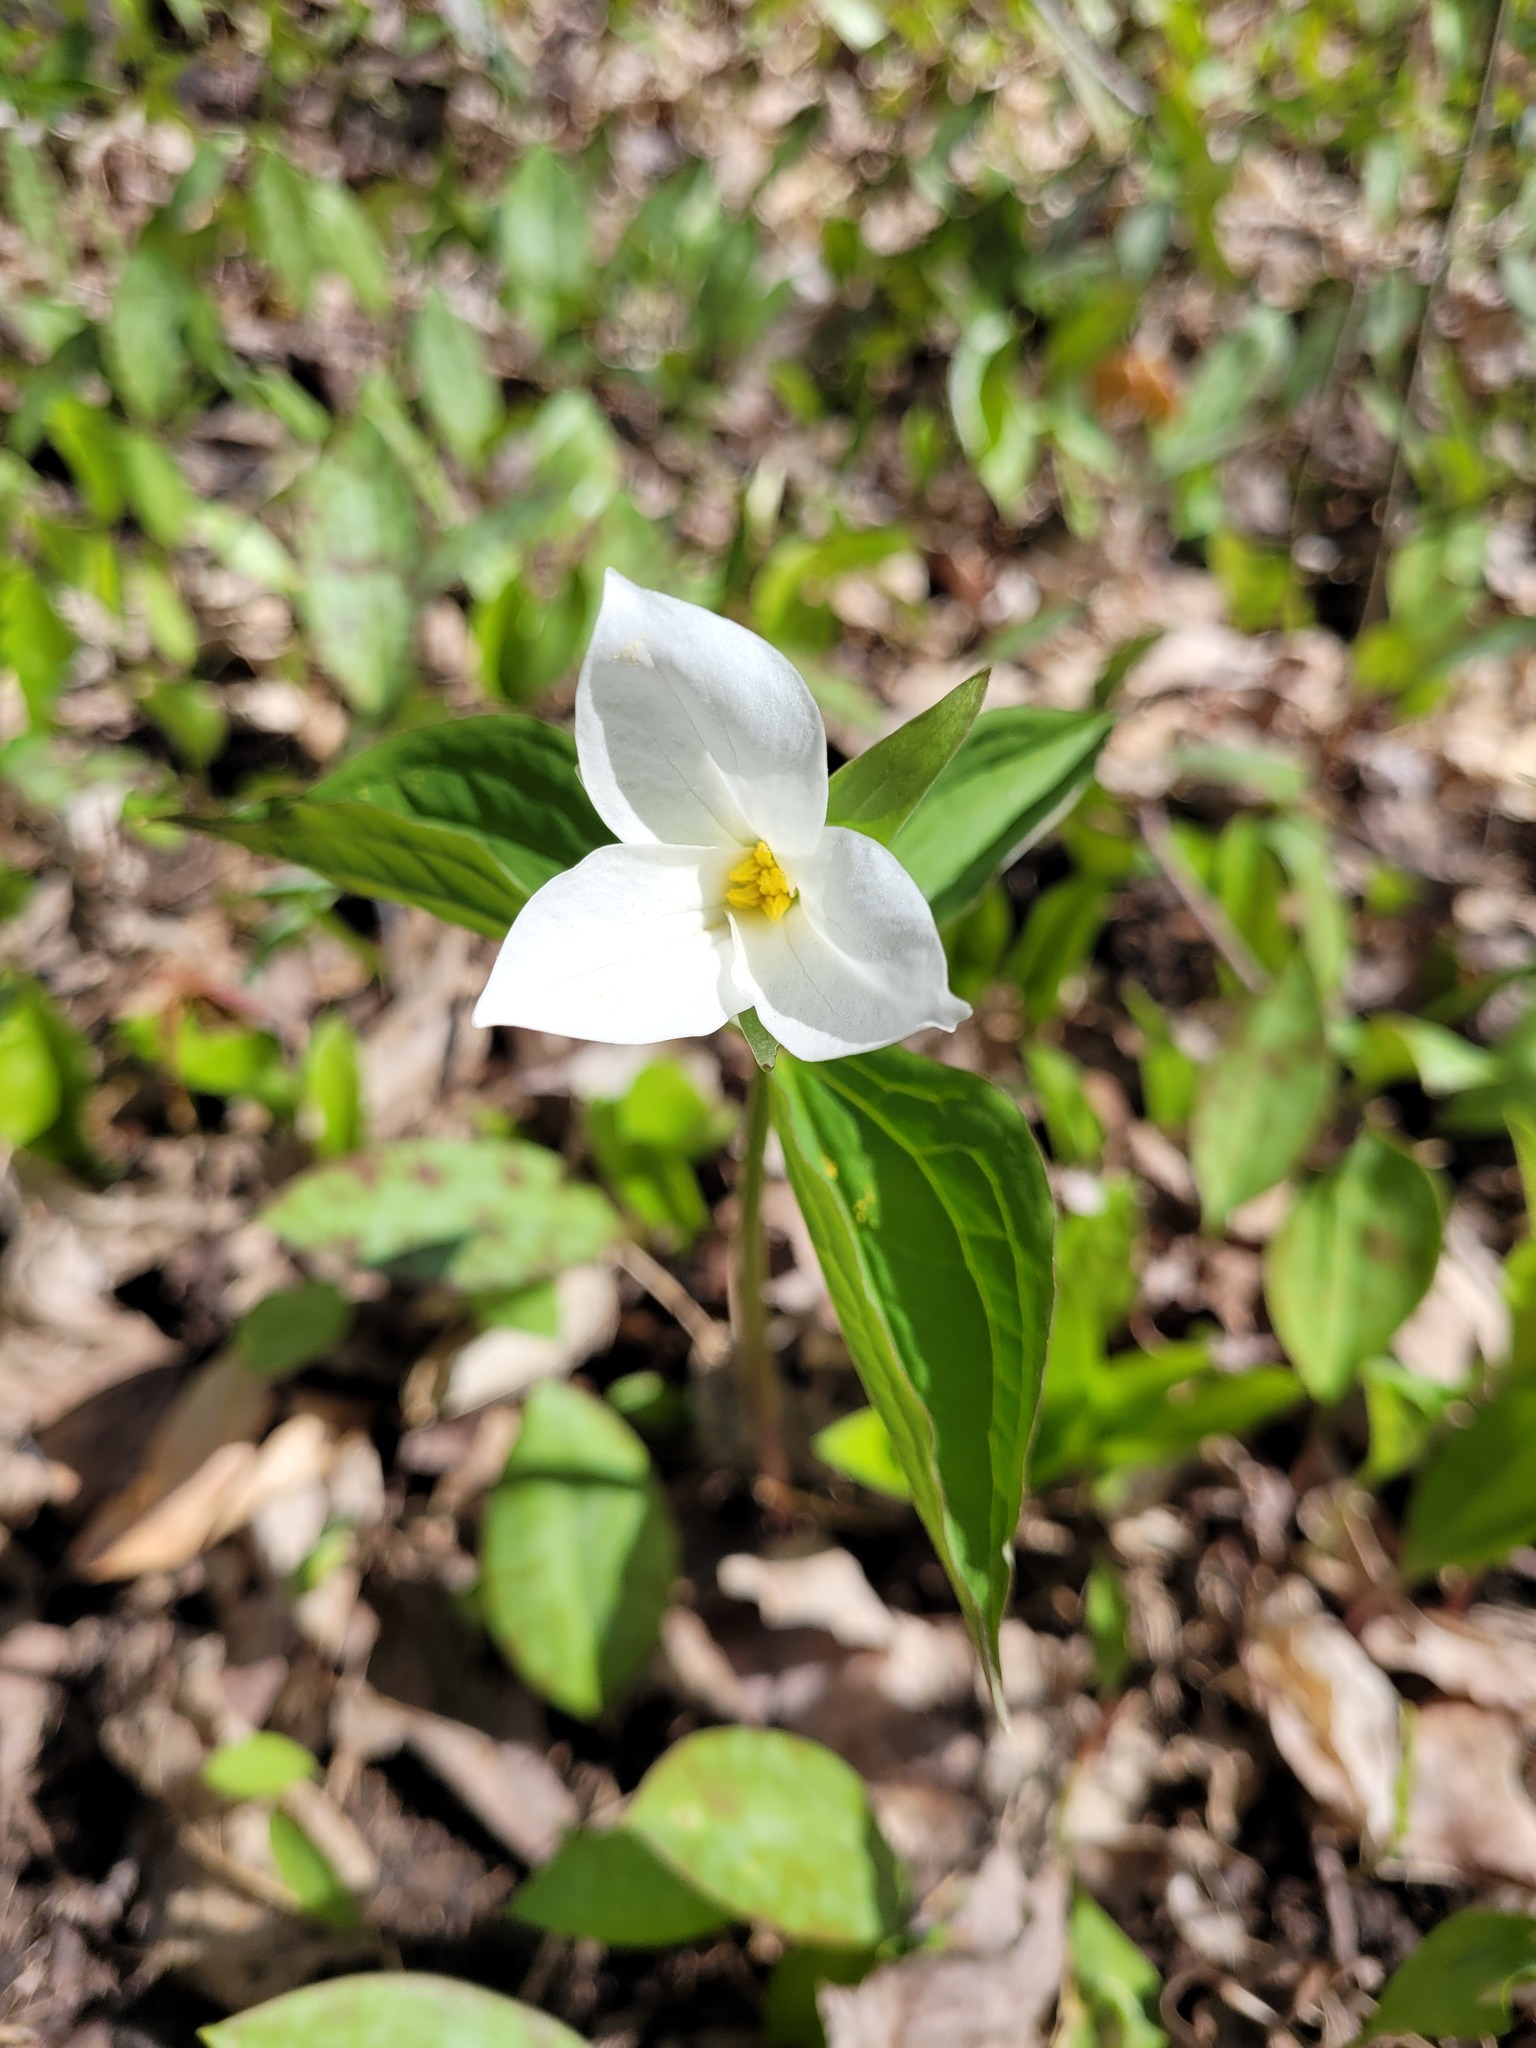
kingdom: Plantae
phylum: Tracheophyta
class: Liliopsida
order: Liliales
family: Melanthiaceae
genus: Trillium
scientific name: Trillium grandiflorum
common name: Great white trillium
